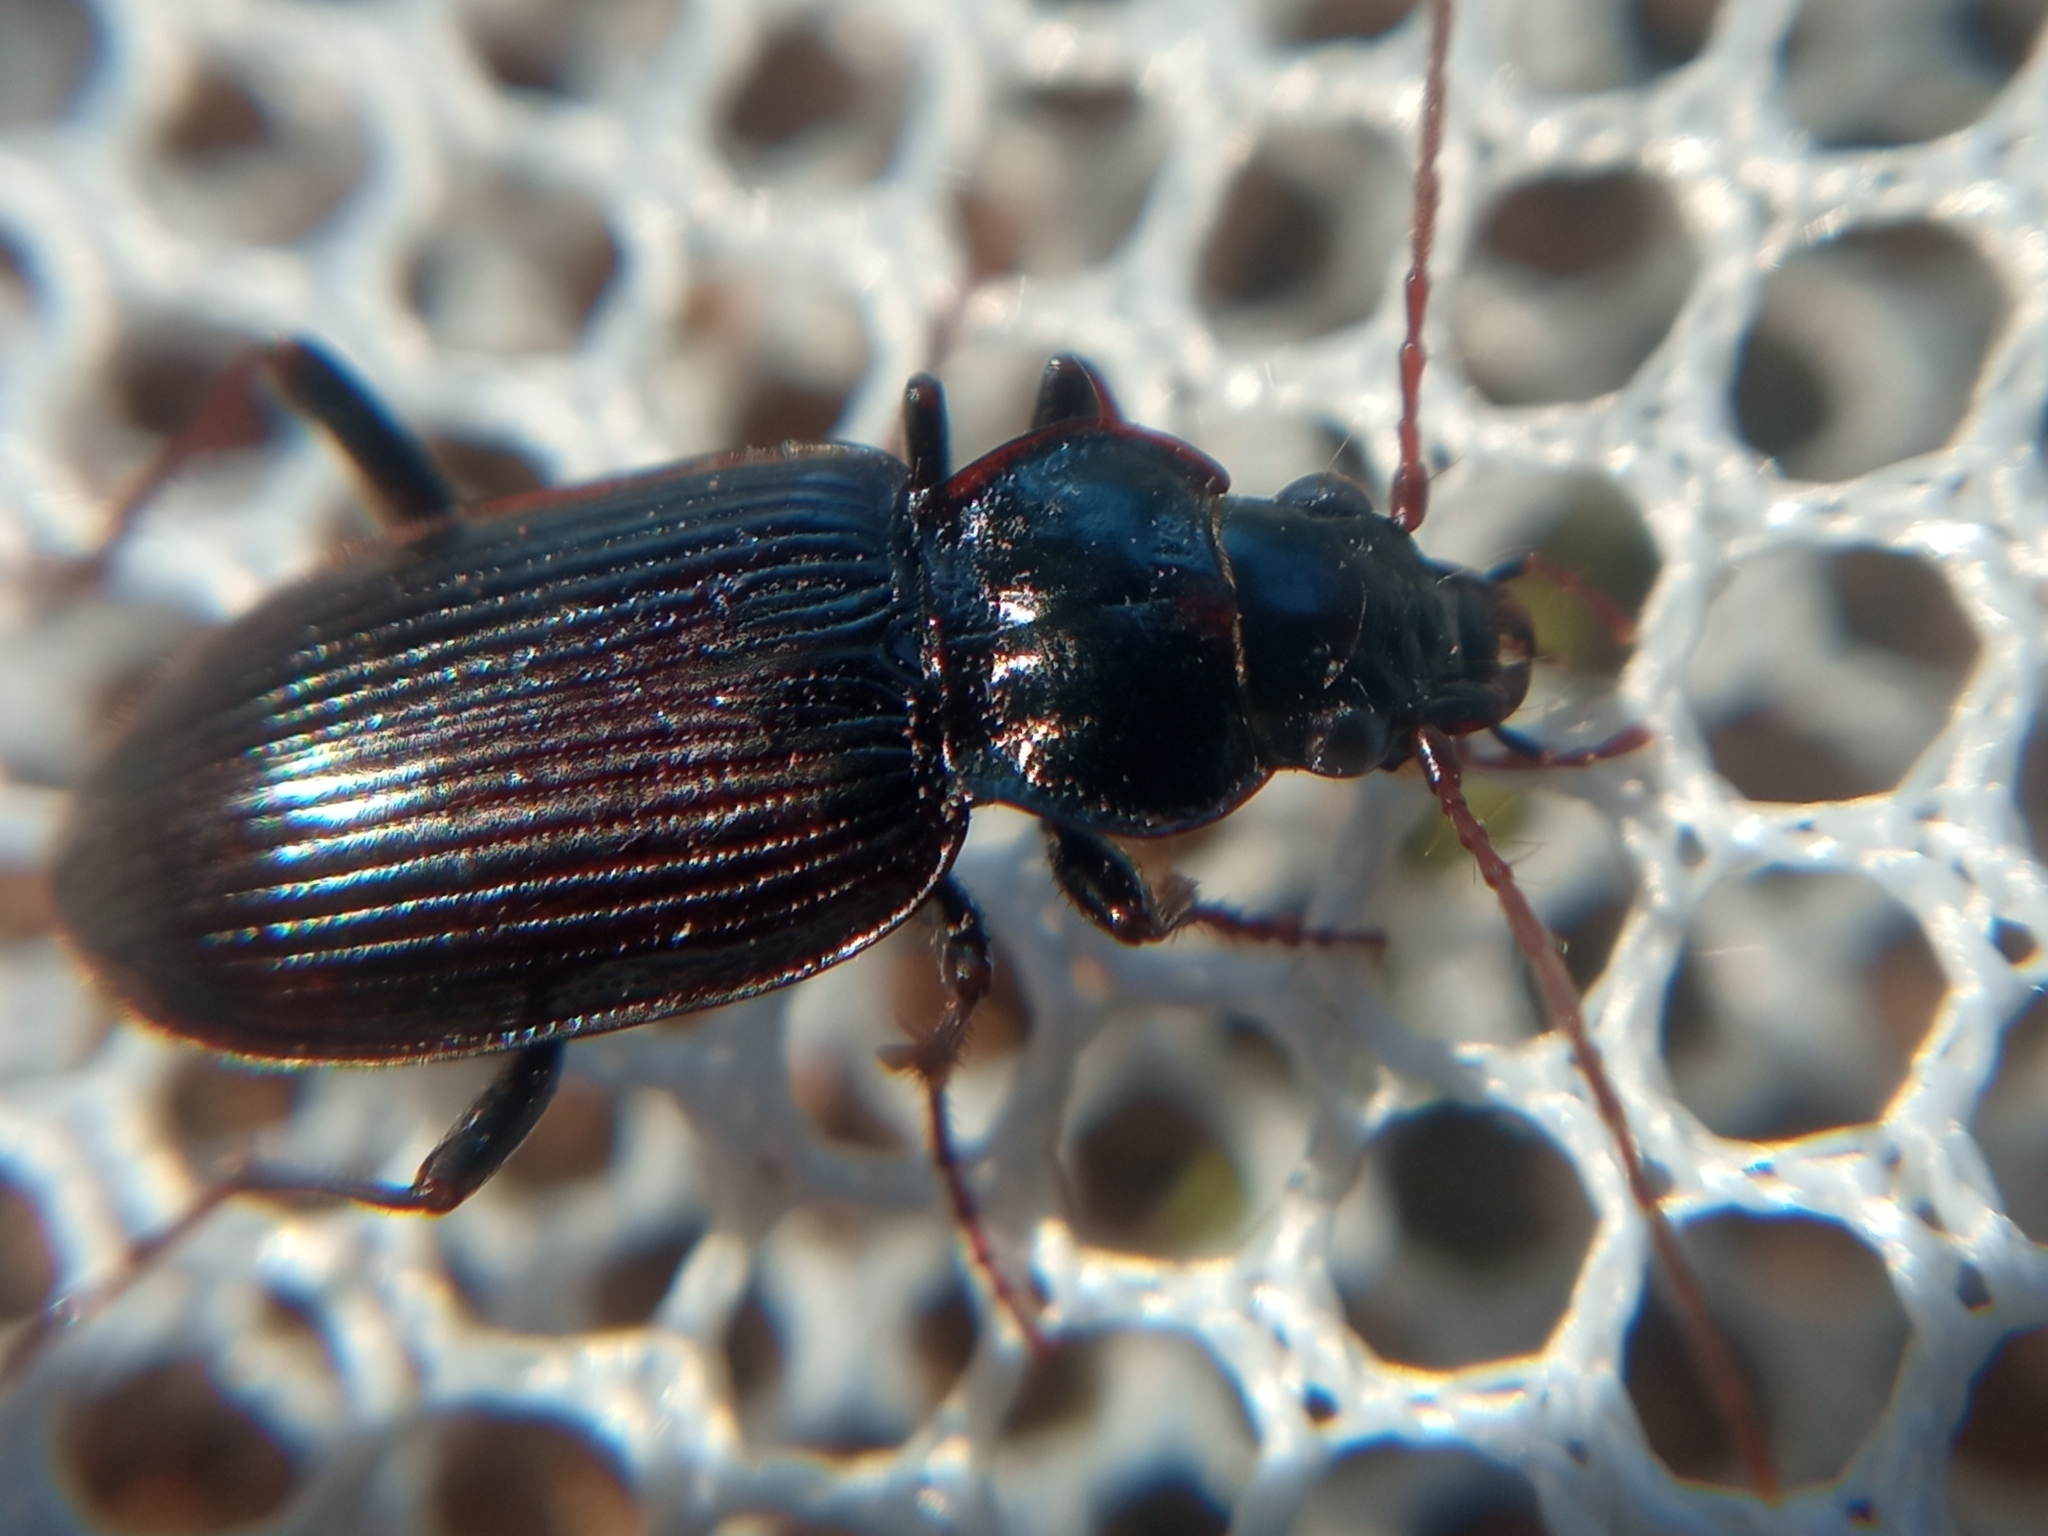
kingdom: Animalia
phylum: Arthropoda
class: Insecta
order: Coleoptera
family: Carabidae
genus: Nebria
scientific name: Nebria salina
